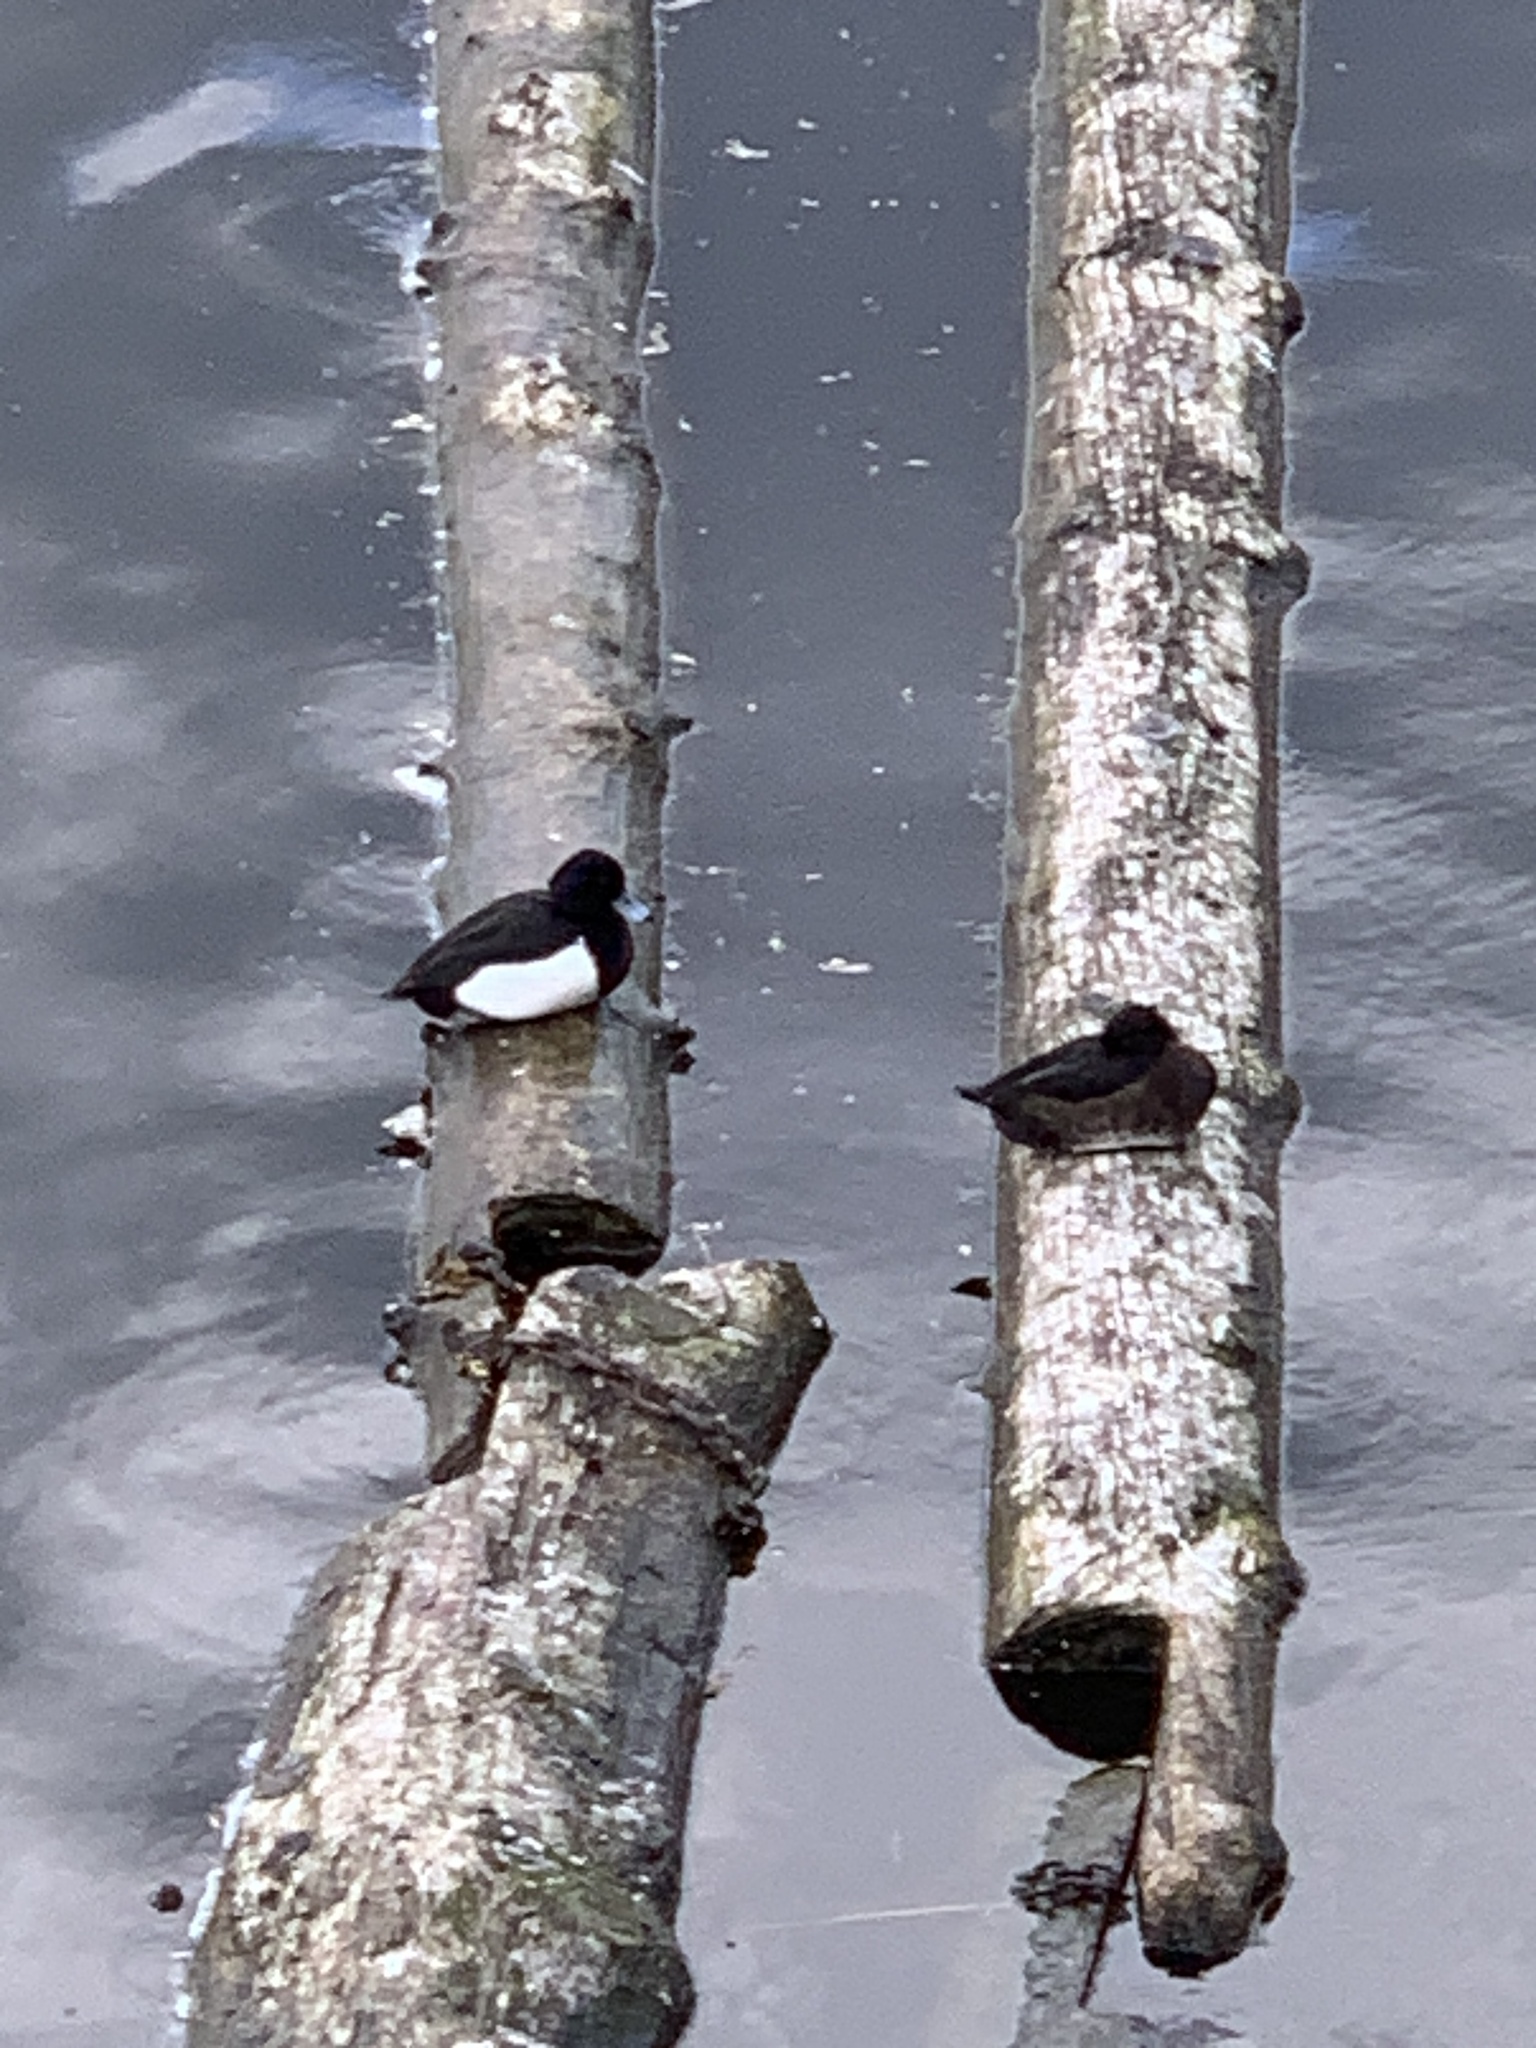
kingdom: Animalia
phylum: Chordata
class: Aves
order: Anseriformes
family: Anatidae
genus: Aythya
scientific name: Aythya fuligula
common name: Tufted duck
